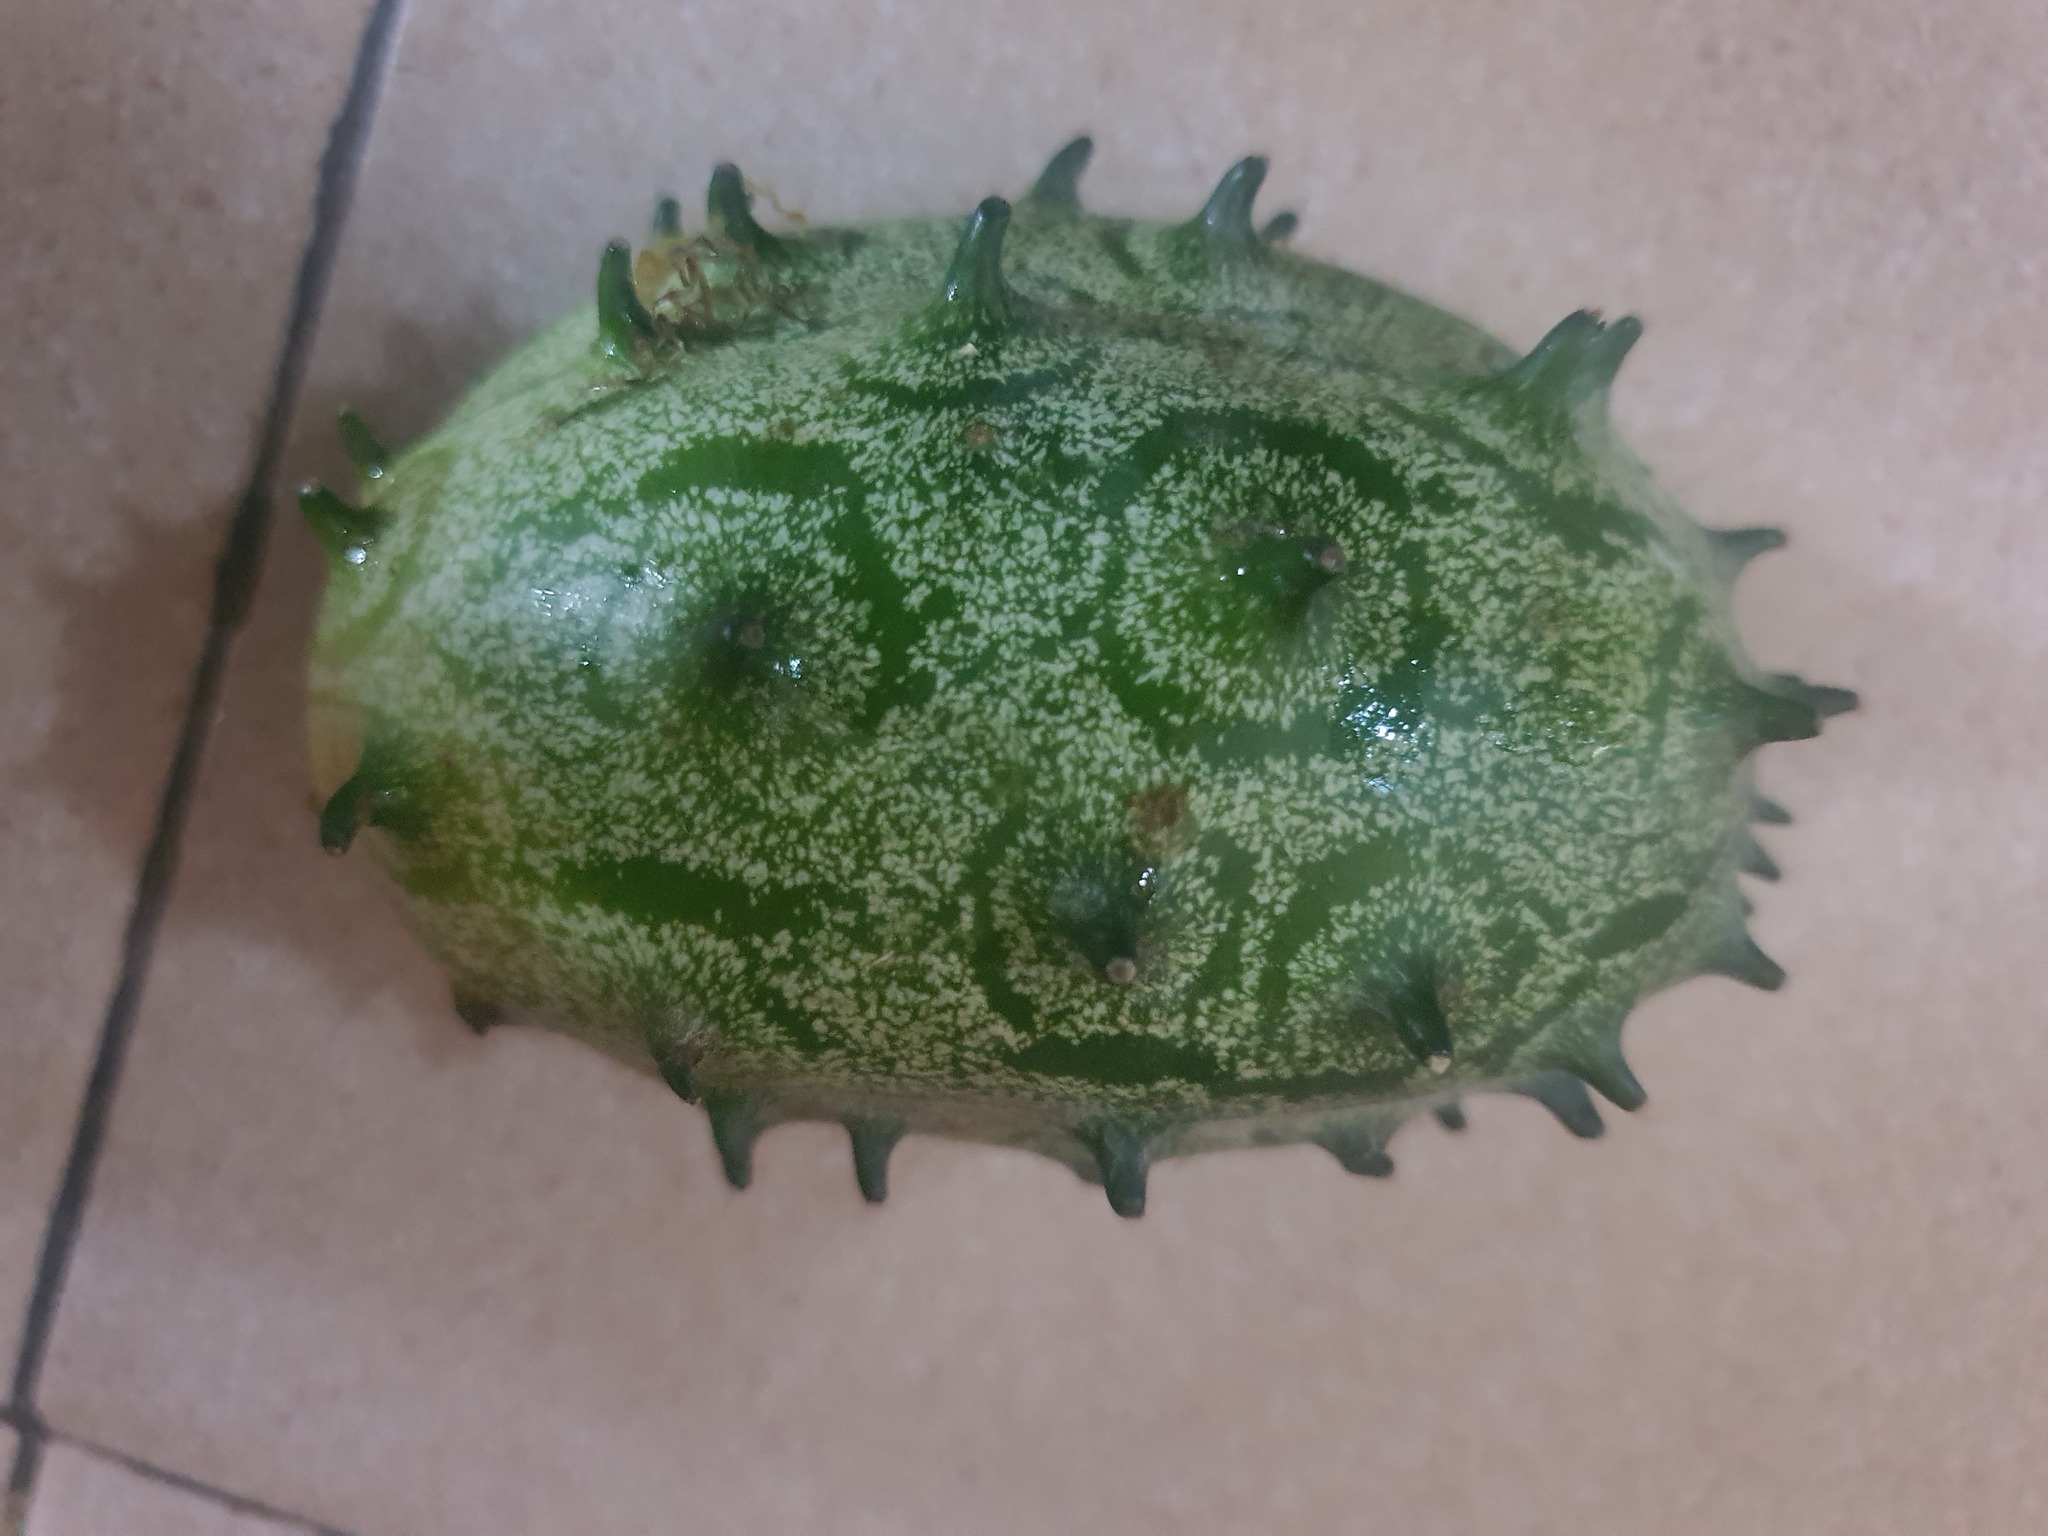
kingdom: Plantae
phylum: Tracheophyta
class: Magnoliopsida
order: Cucurbitales
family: Cucurbitaceae
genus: Cucumis
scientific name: Cucumis metuliferus
